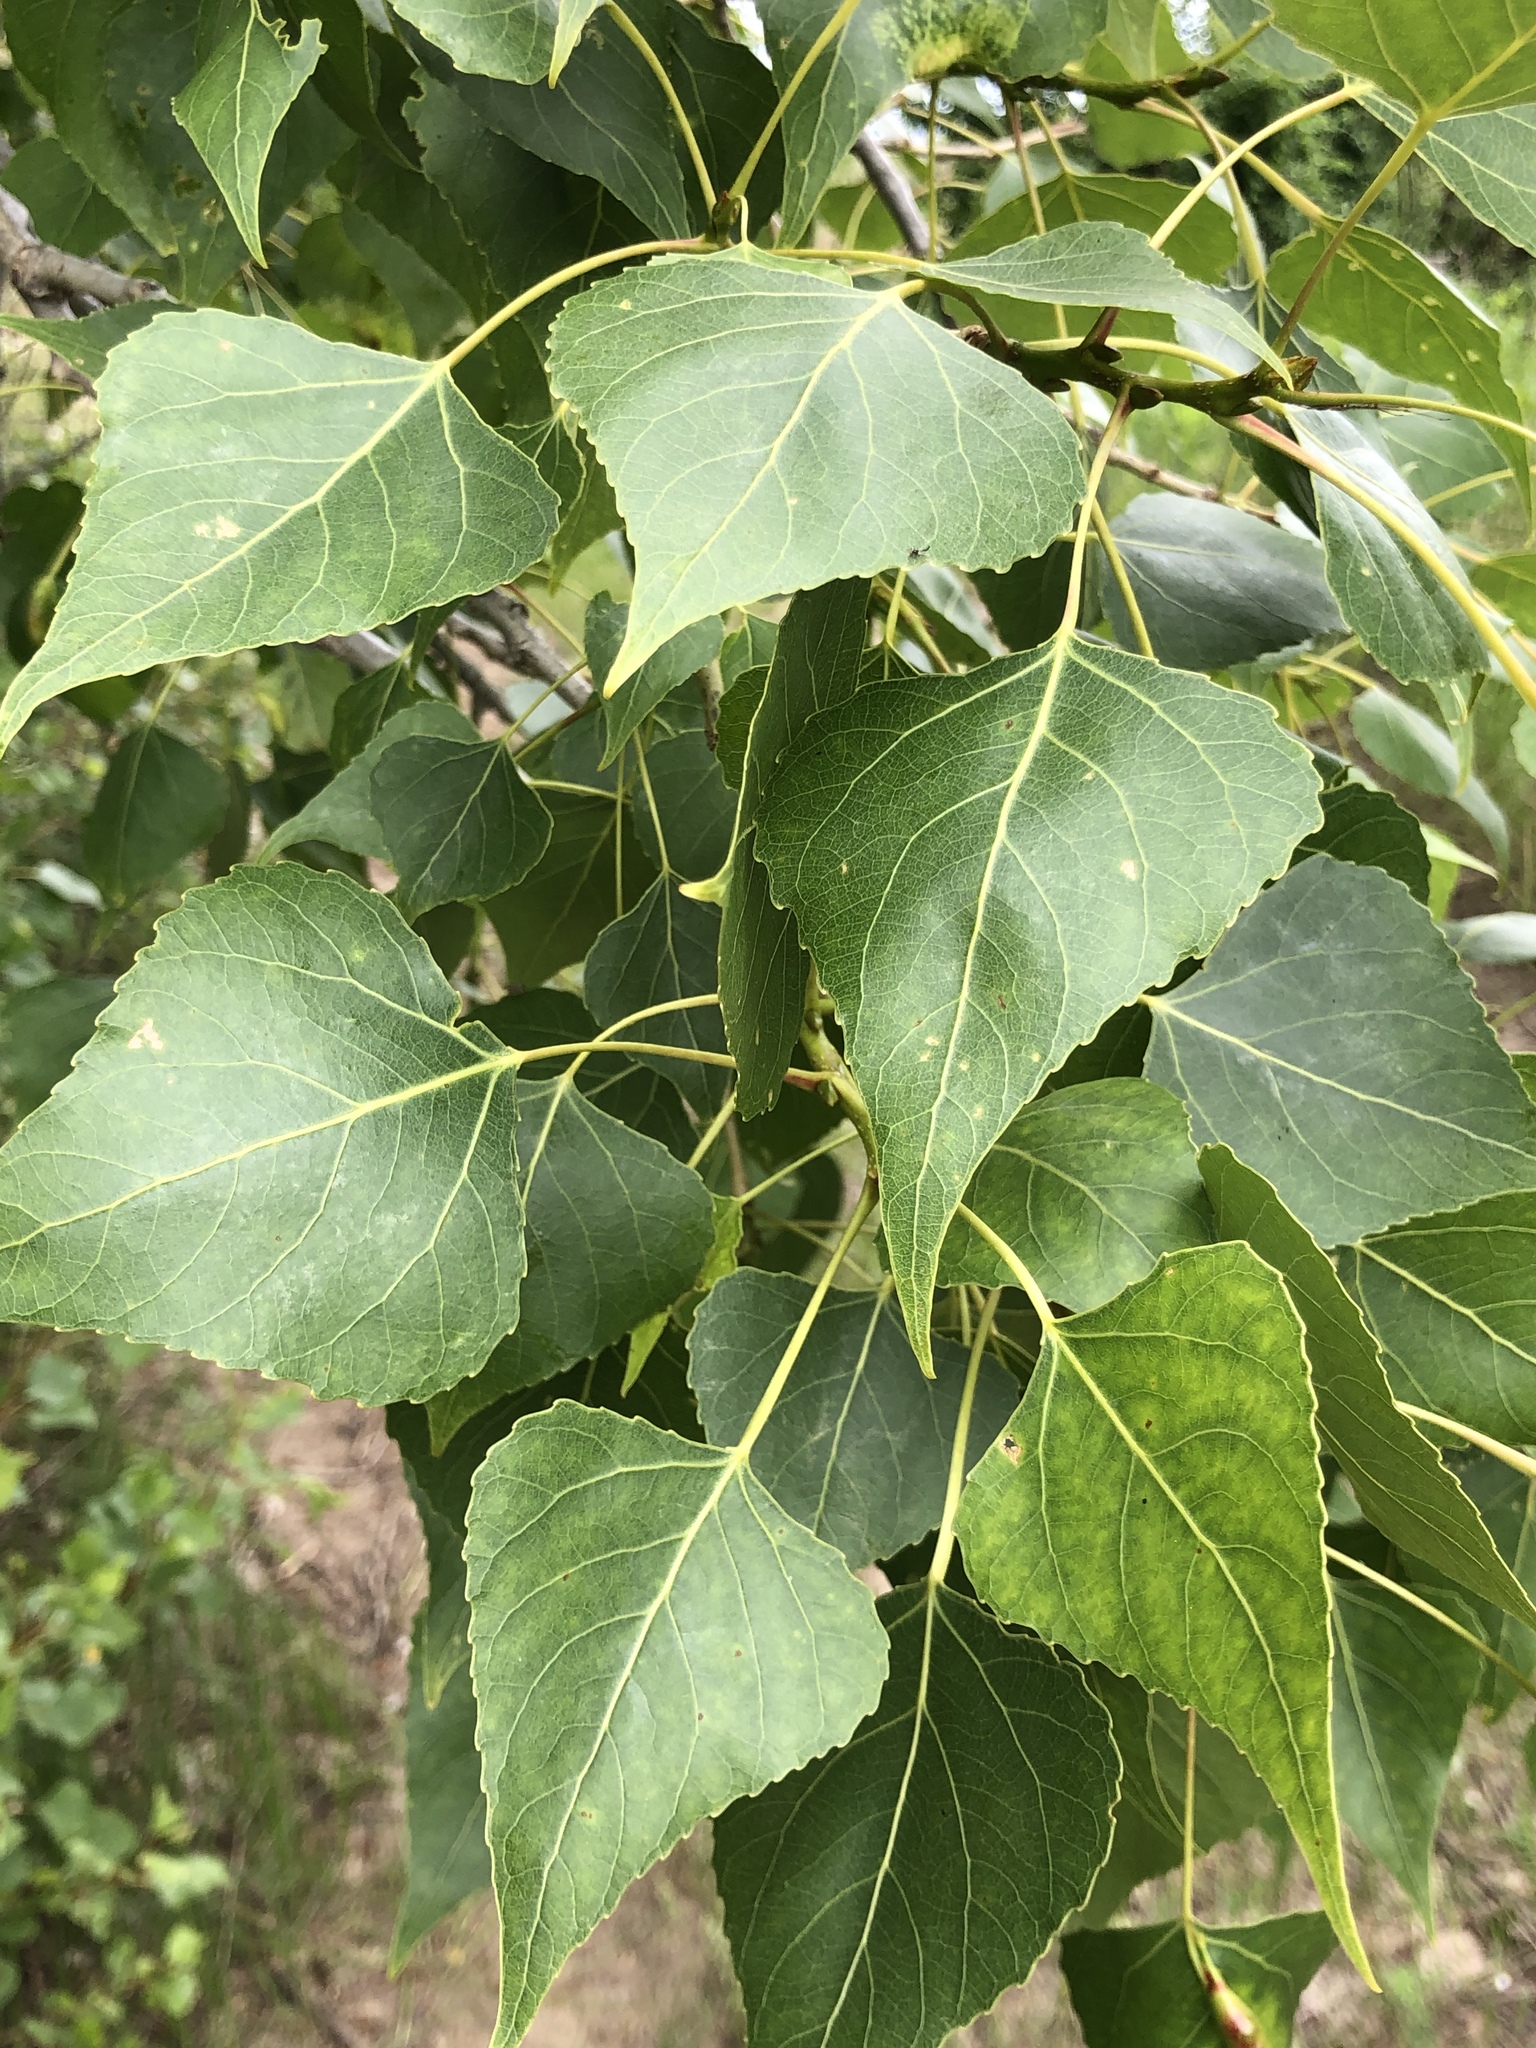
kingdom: Plantae
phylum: Tracheophyta
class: Magnoliopsida
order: Malpighiales
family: Salicaceae
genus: Populus
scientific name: Populus nigra
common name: Black poplar
